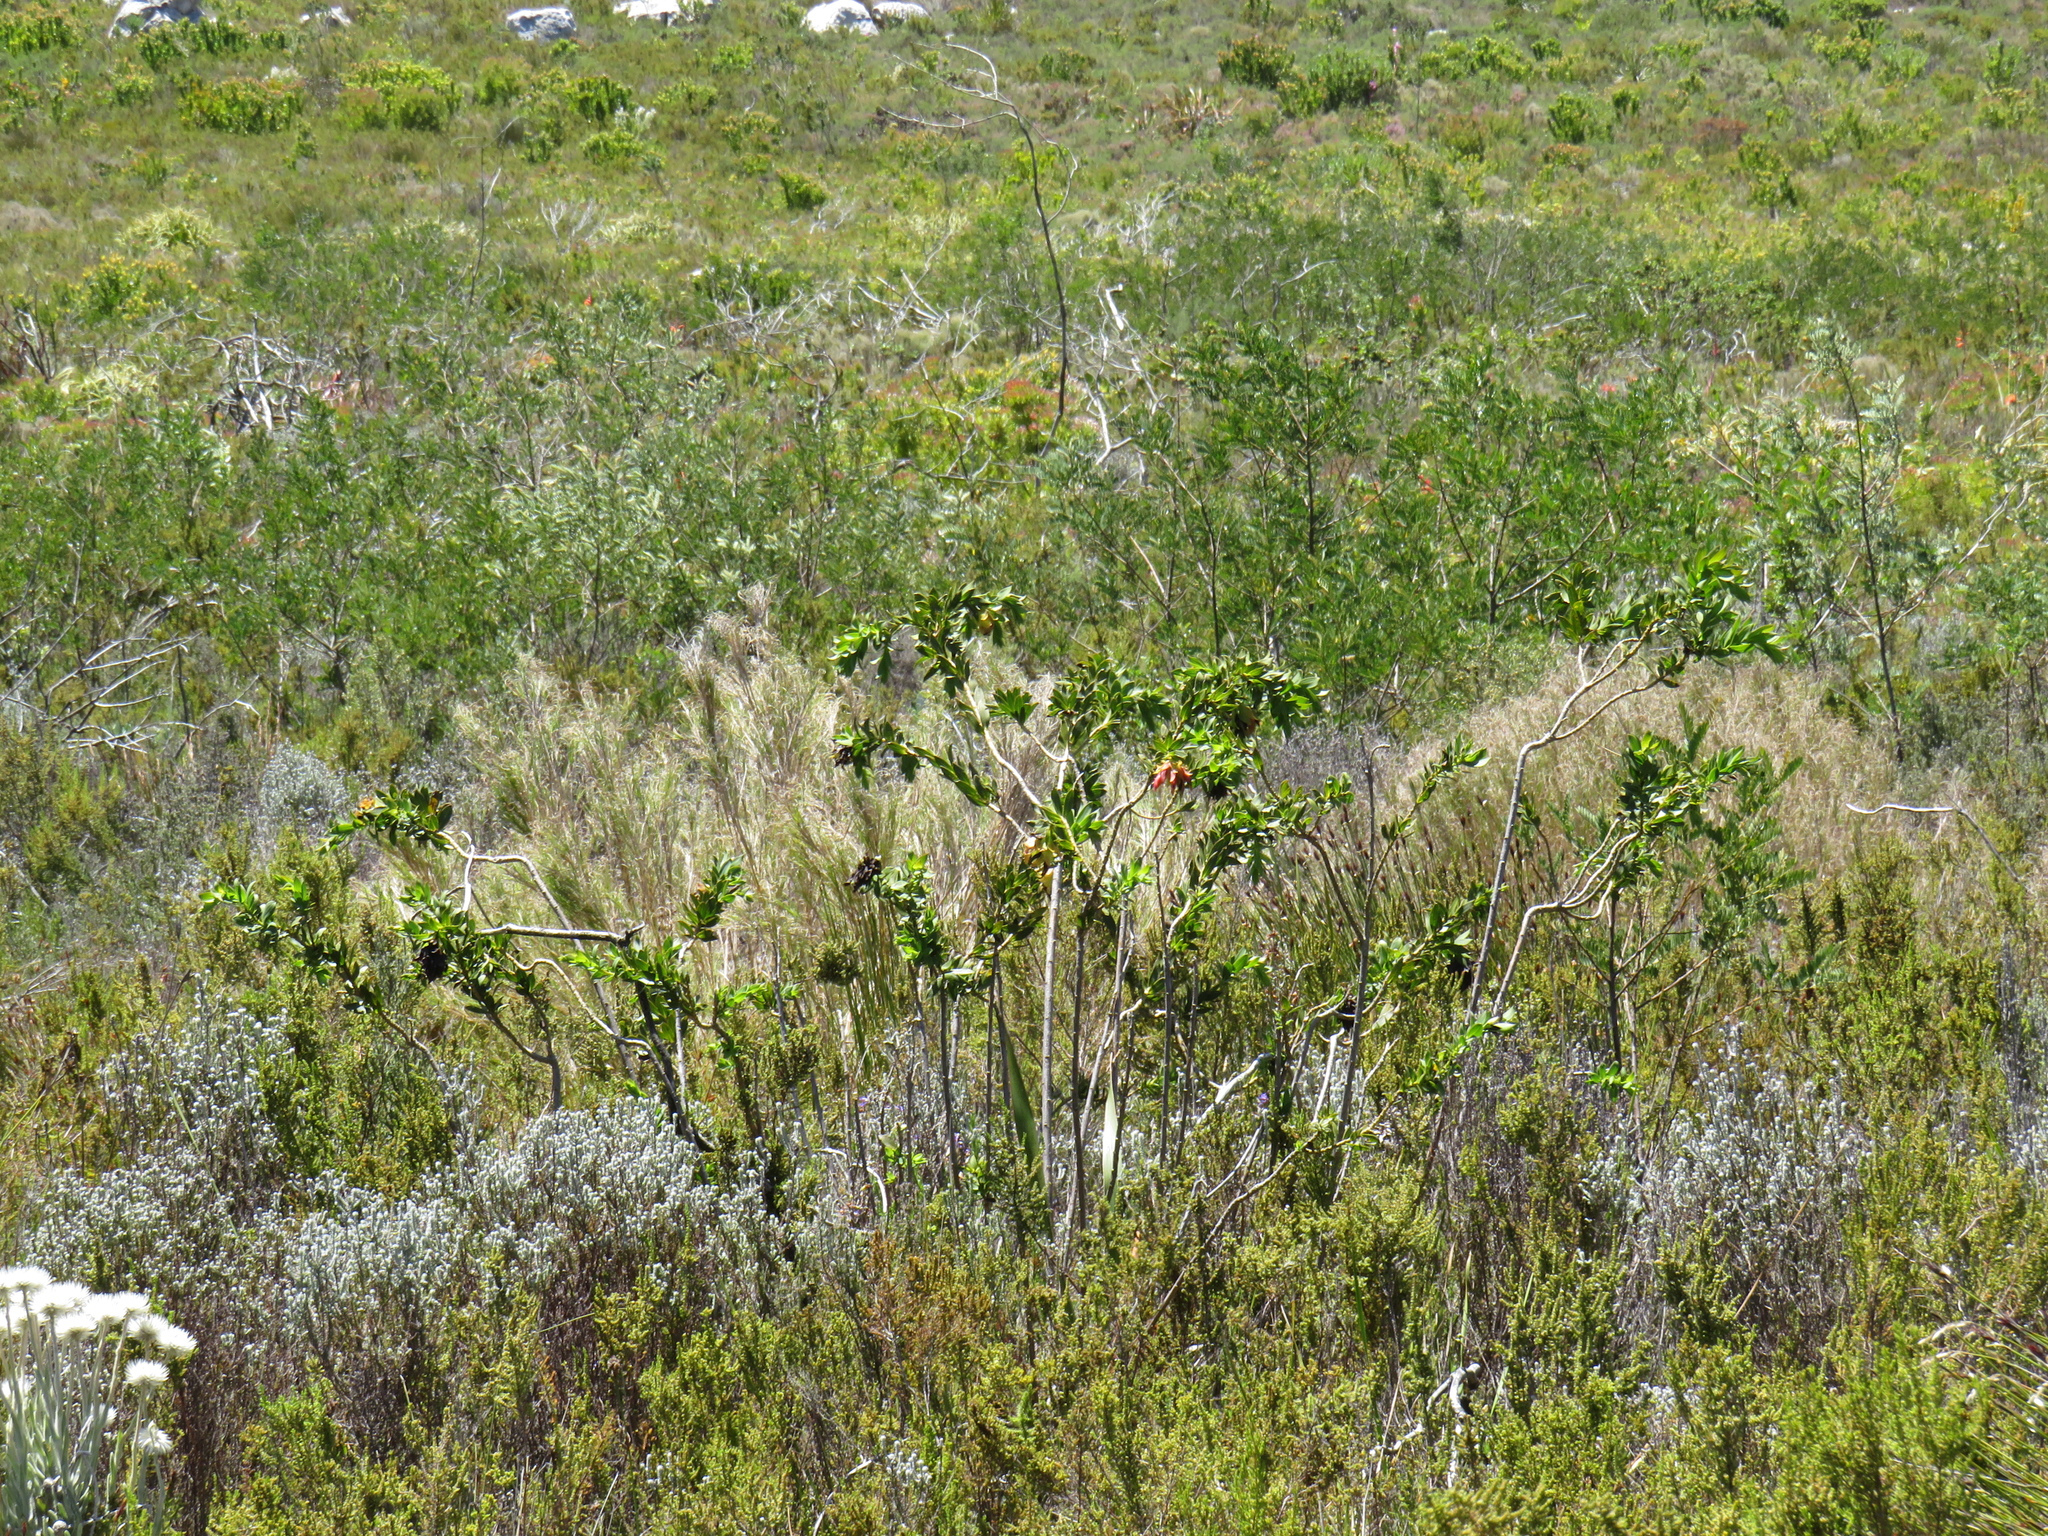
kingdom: Plantae
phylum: Tracheophyta
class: Magnoliopsida
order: Fabales
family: Fabaceae
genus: Liparia
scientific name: Liparia splendens
